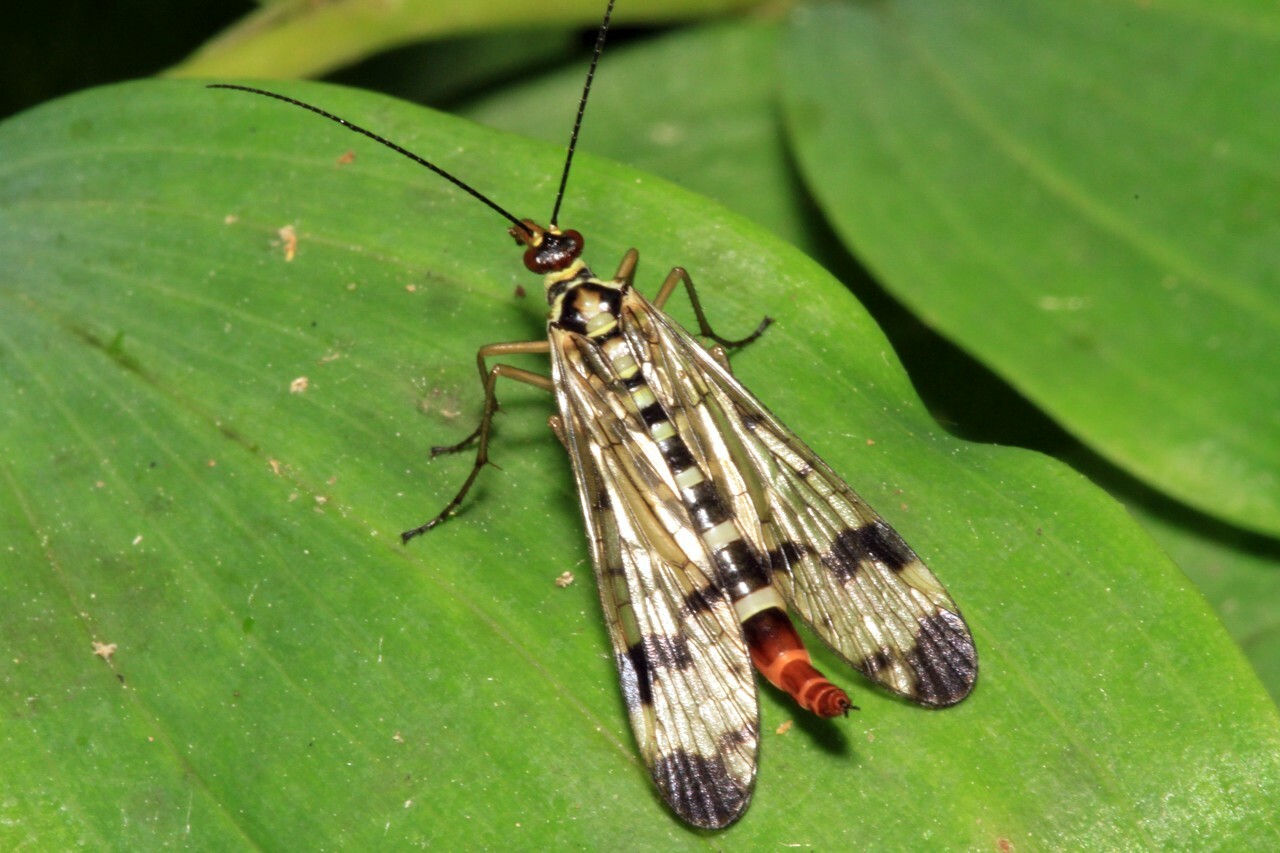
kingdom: Animalia
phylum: Arthropoda
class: Insecta
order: Mecoptera
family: Panorpidae
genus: Panorpa
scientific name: Panorpa communis
